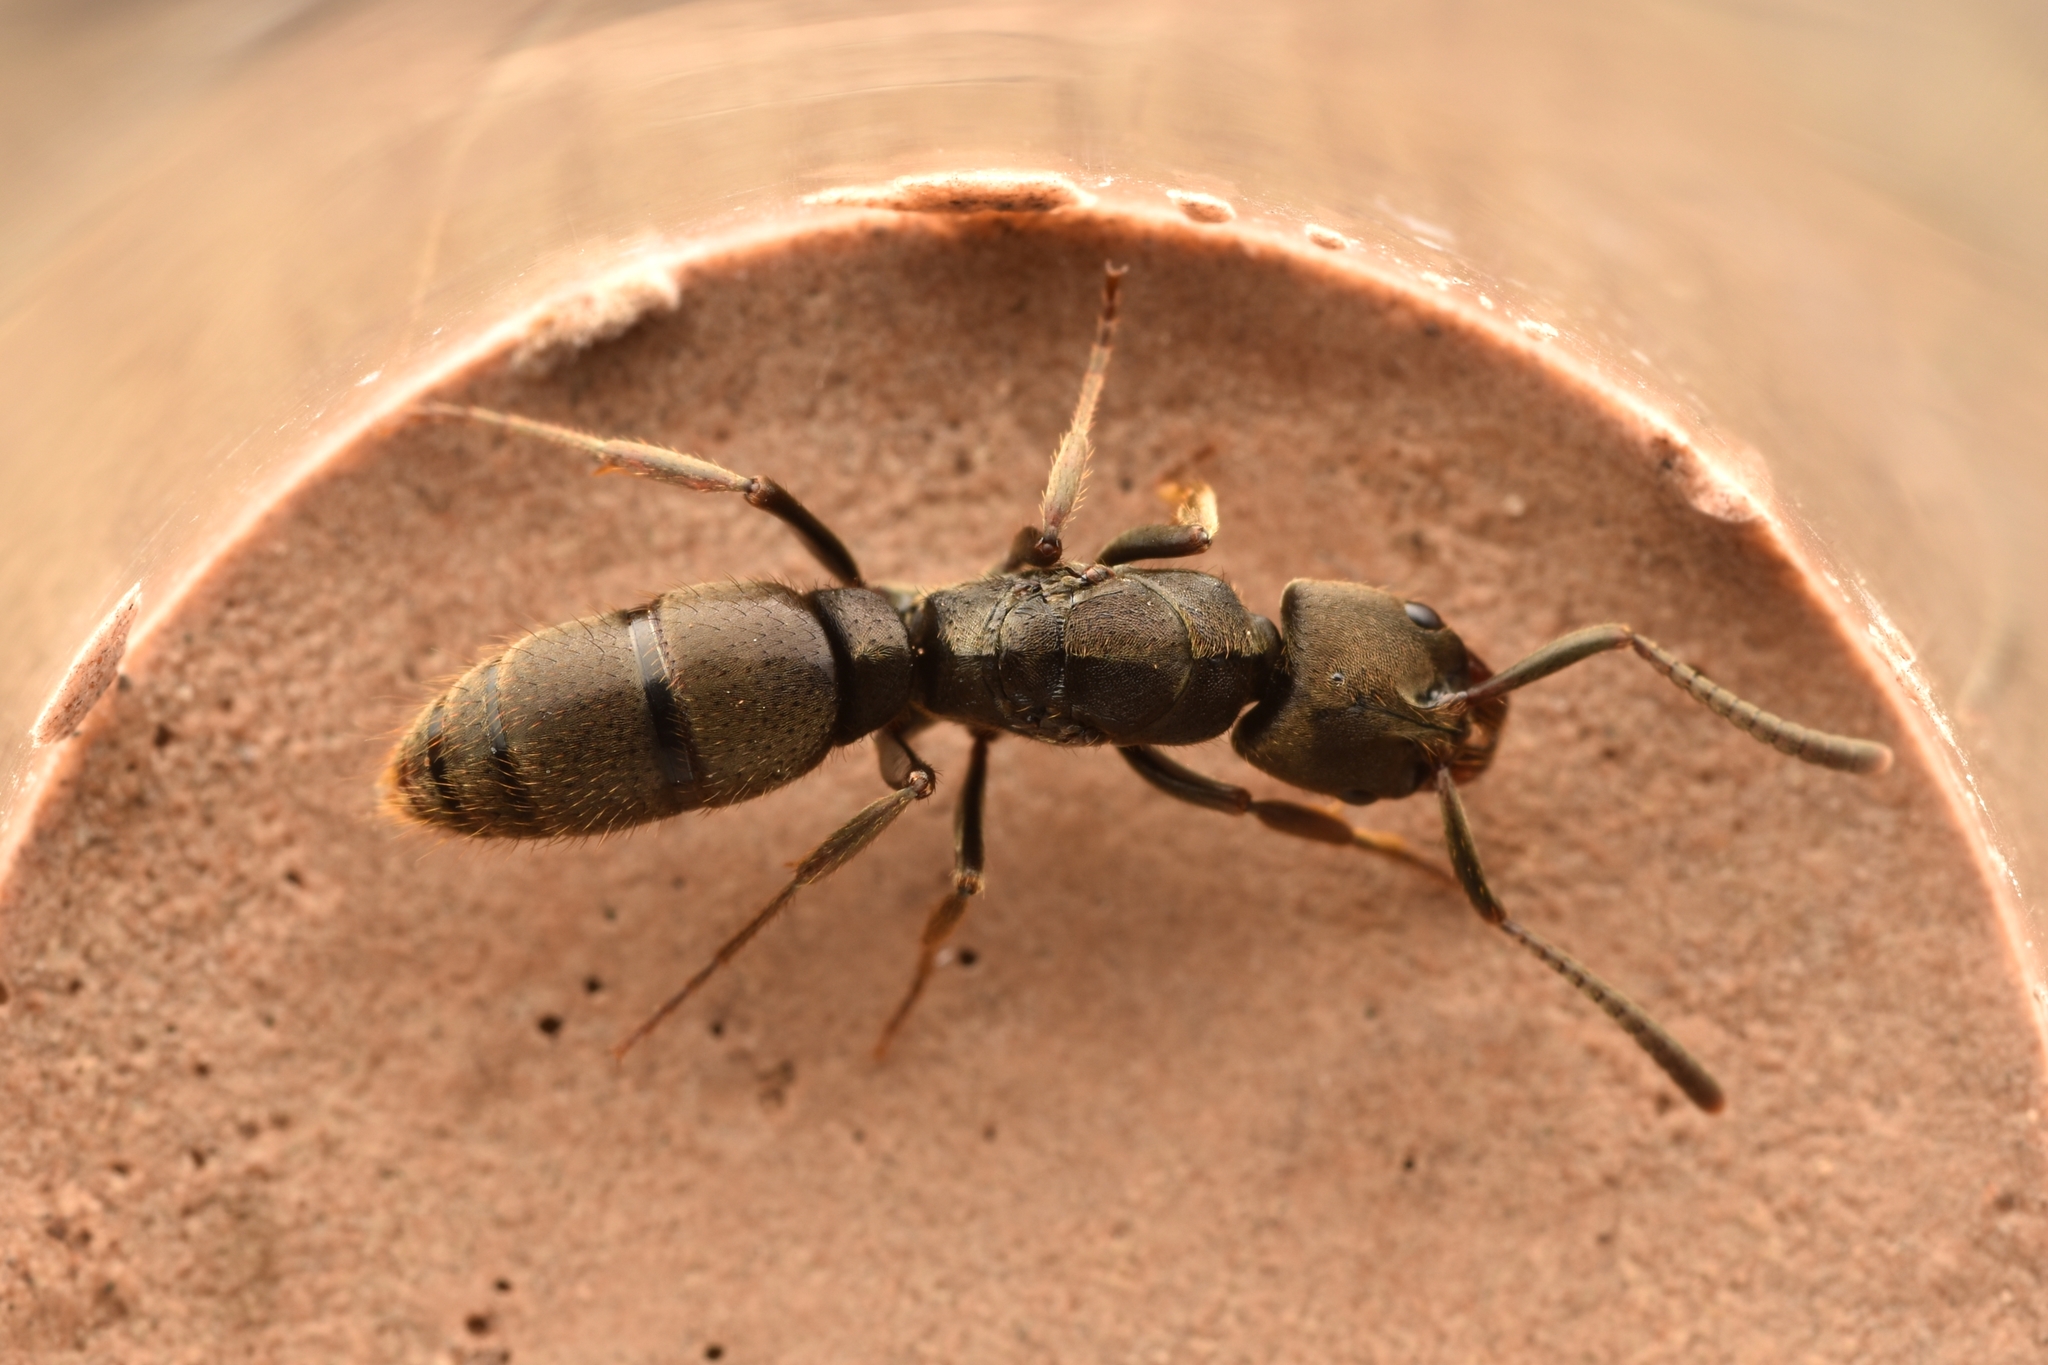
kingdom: Animalia
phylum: Arthropoda
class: Insecta
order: Hymenoptera
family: Formicidae
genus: Pachycondyla
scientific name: Pachycondyla harpax
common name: Ant
